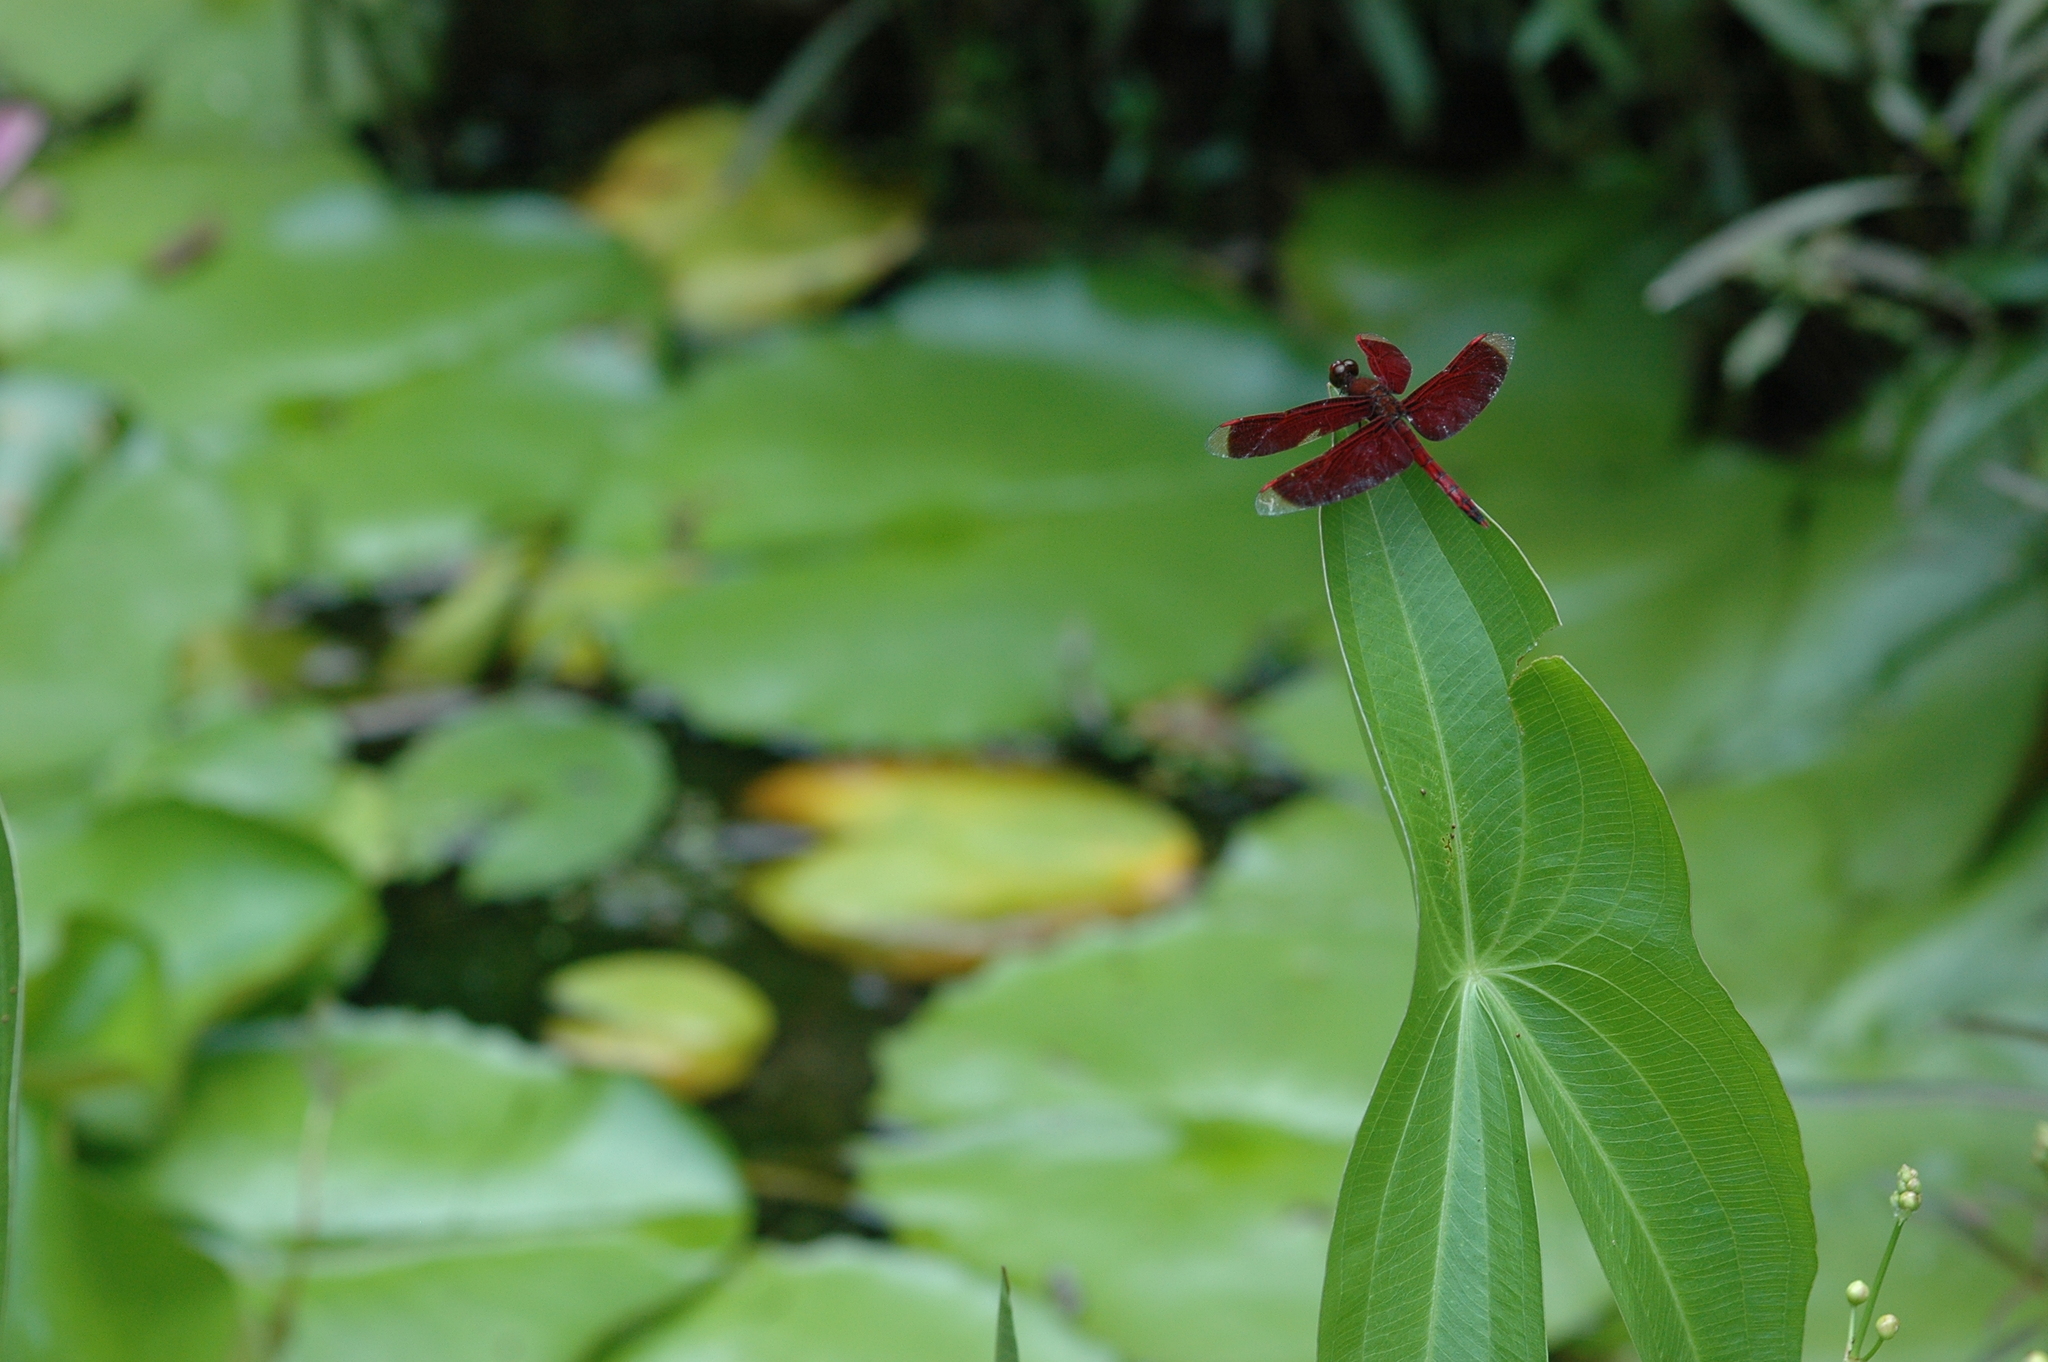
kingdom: Animalia
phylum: Arthropoda
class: Insecta
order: Odonata
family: Libellulidae
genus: Neurothemis
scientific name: Neurothemis taiwanensis
